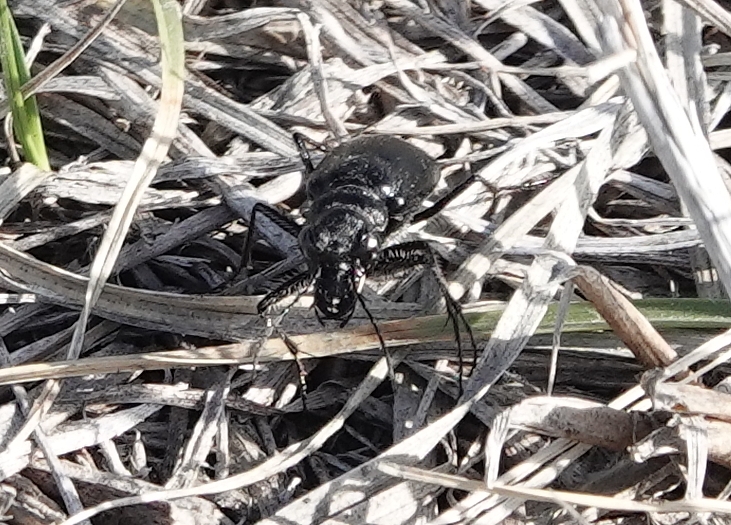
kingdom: Animalia
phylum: Arthropoda
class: Insecta
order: Coleoptera
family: Carabidae
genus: Cicindela
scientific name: Cicindela nebraskana
